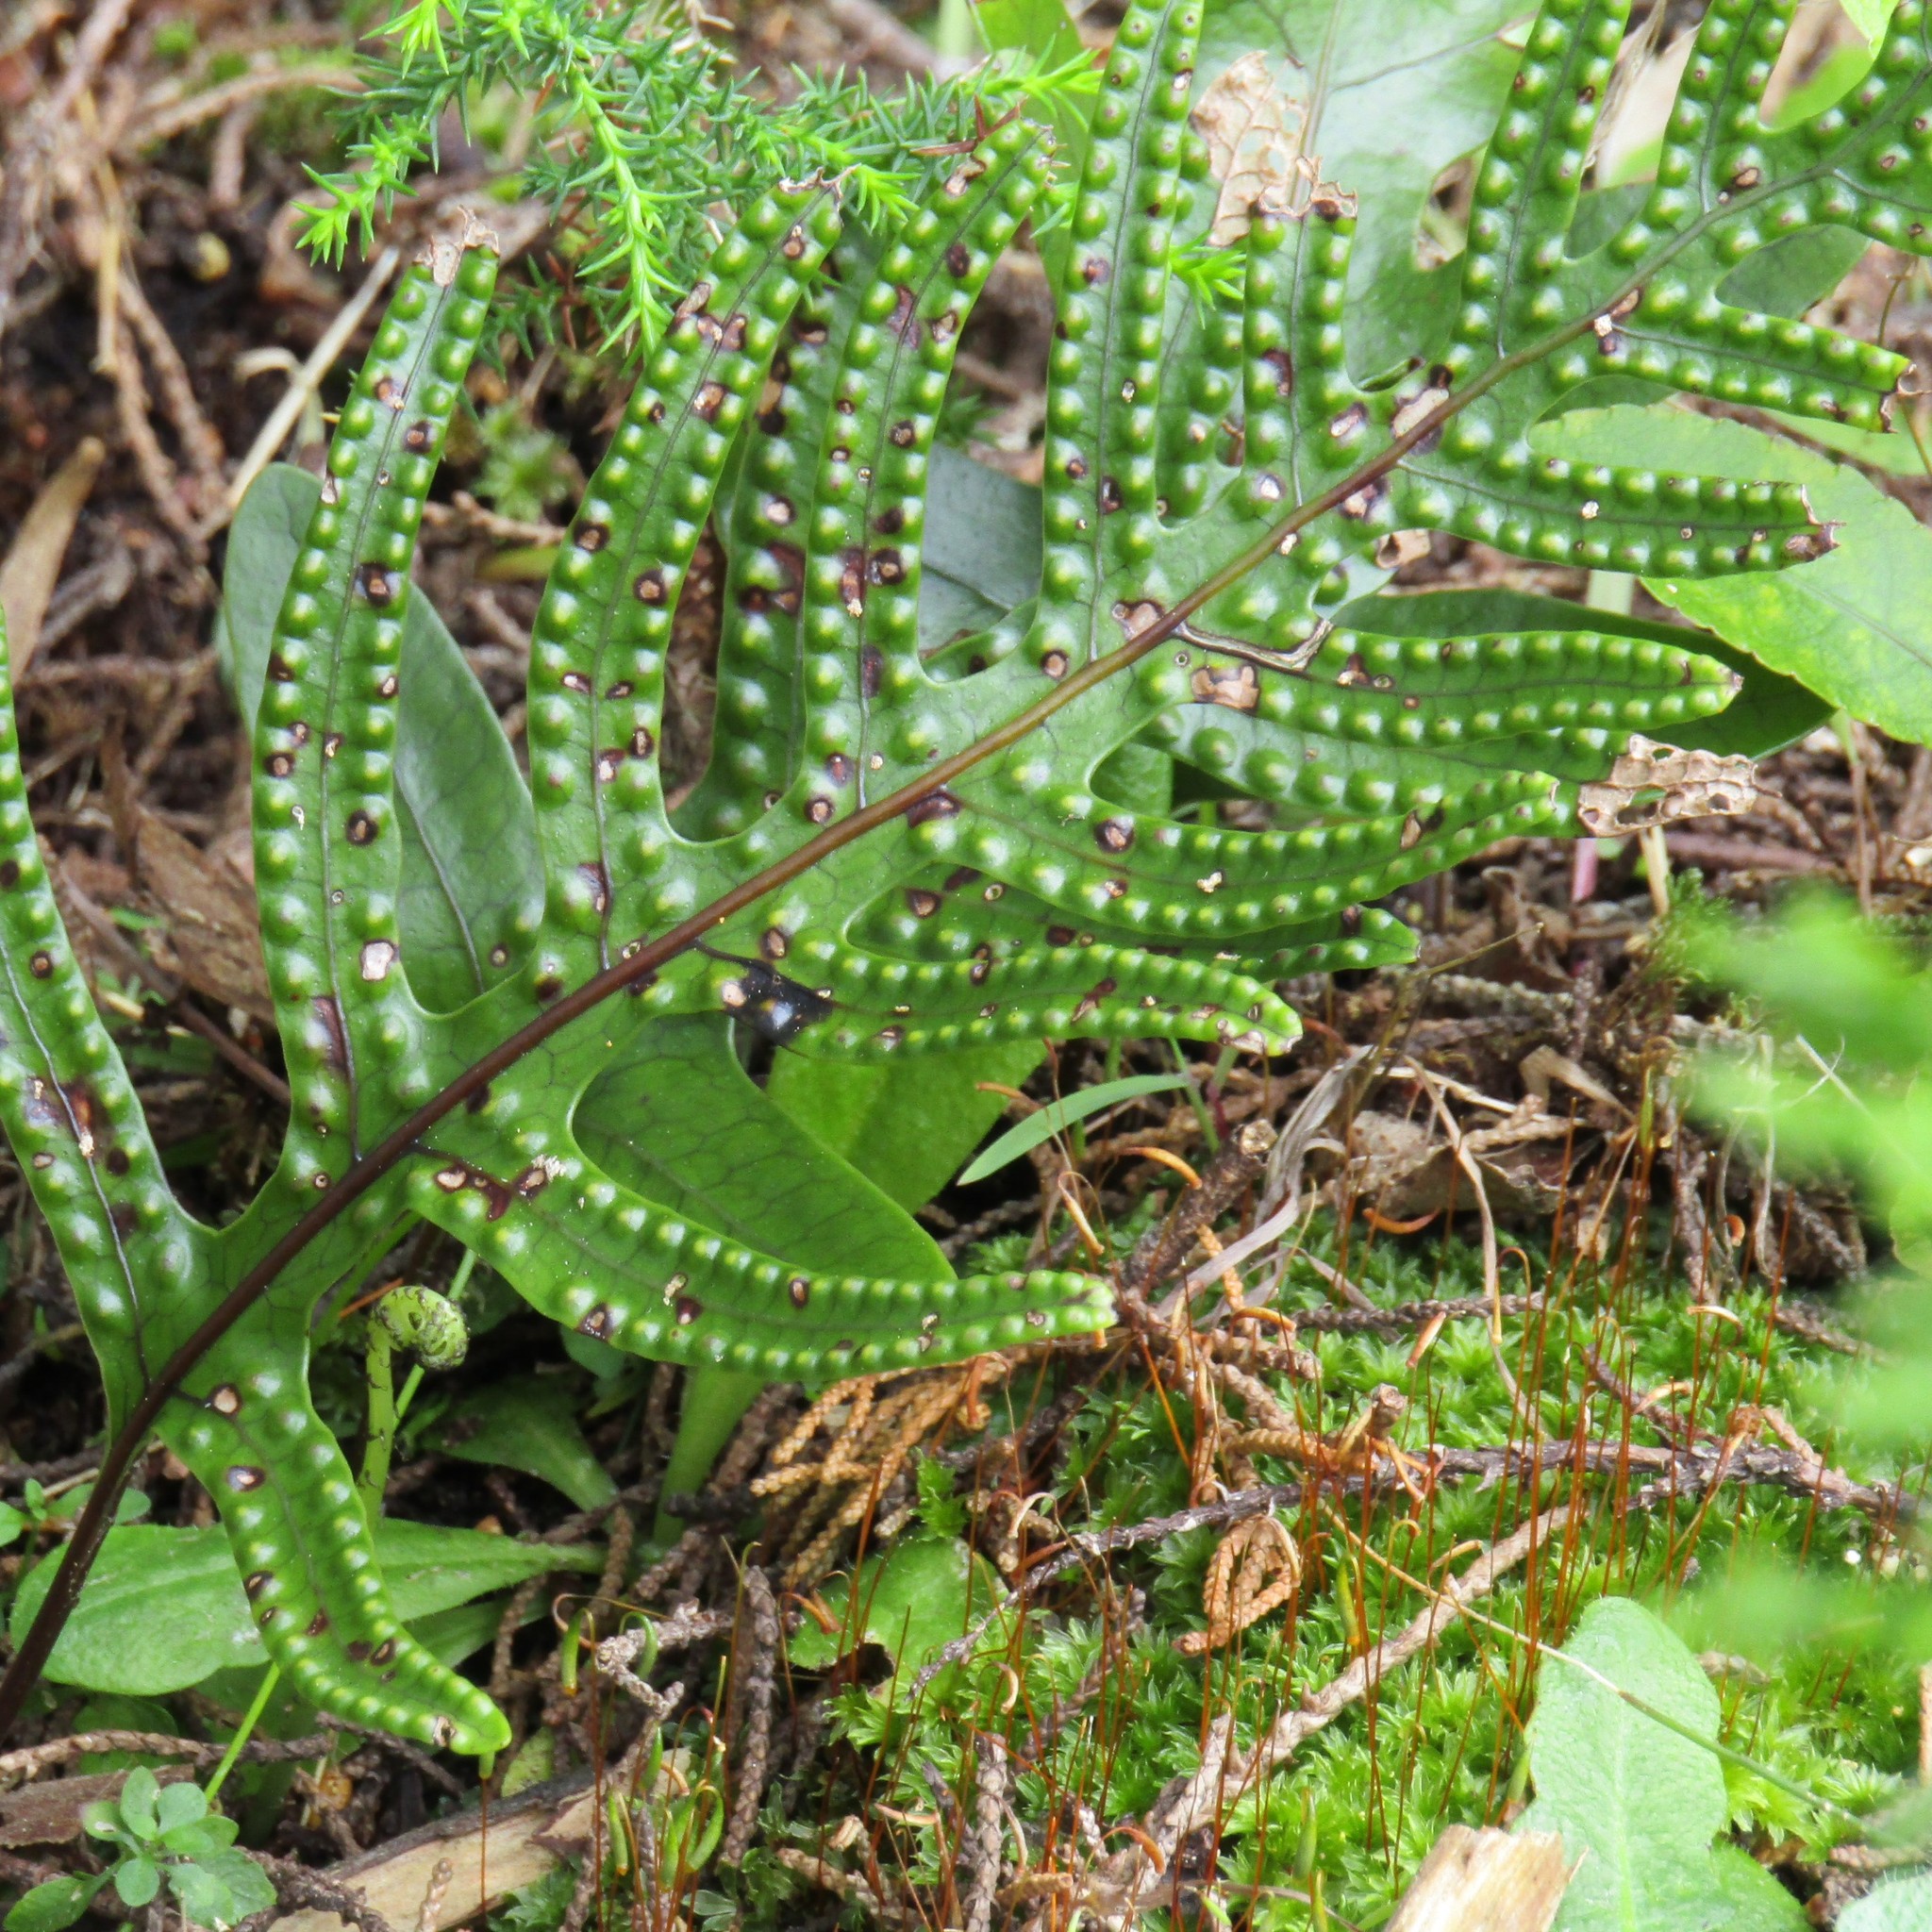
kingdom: Plantae
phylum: Tracheophyta
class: Polypodiopsida
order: Polypodiales
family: Polypodiaceae
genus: Lecanopteris
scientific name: Lecanopteris pustulata
